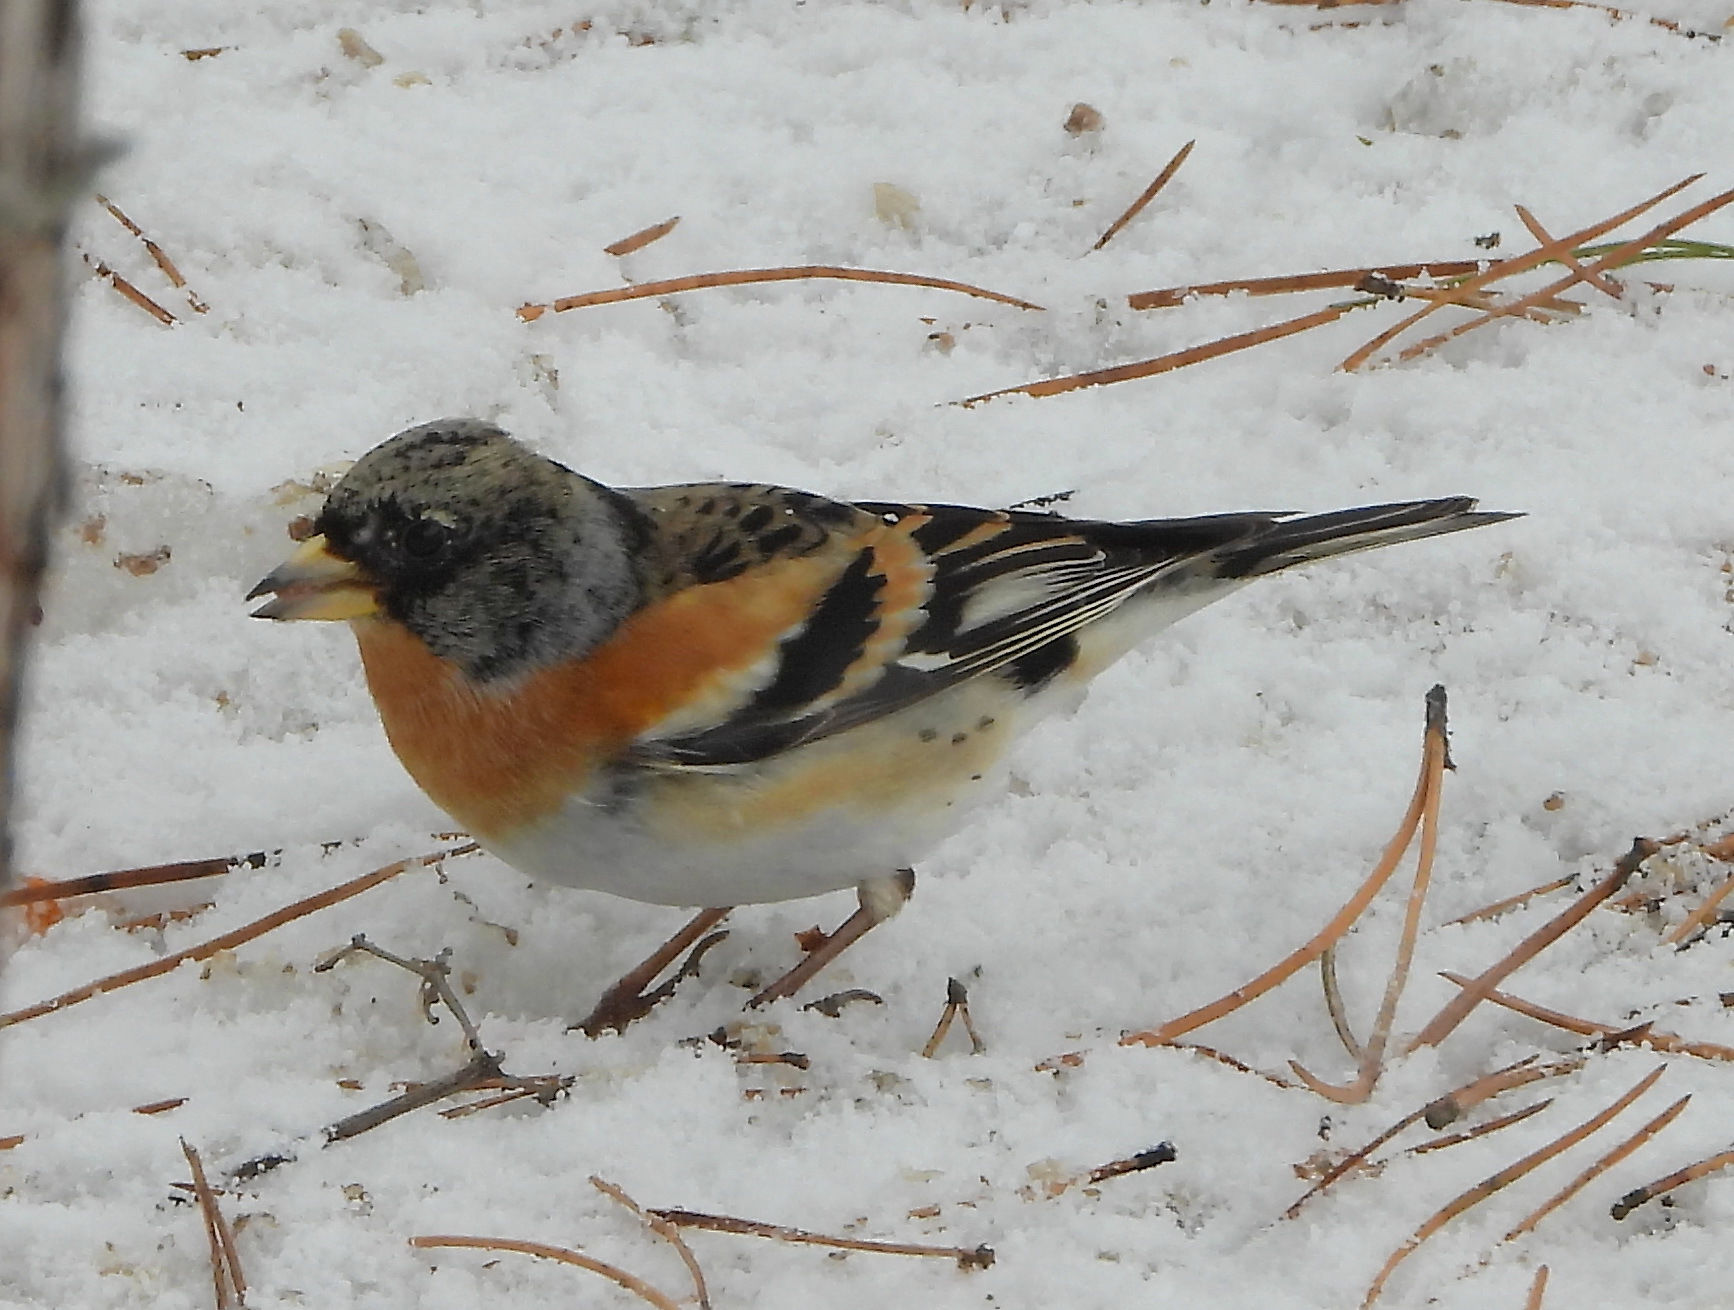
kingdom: Animalia
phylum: Chordata
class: Aves
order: Passeriformes
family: Fringillidae
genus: Fringilla
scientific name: Fringilla montifringilla
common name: Brambling
